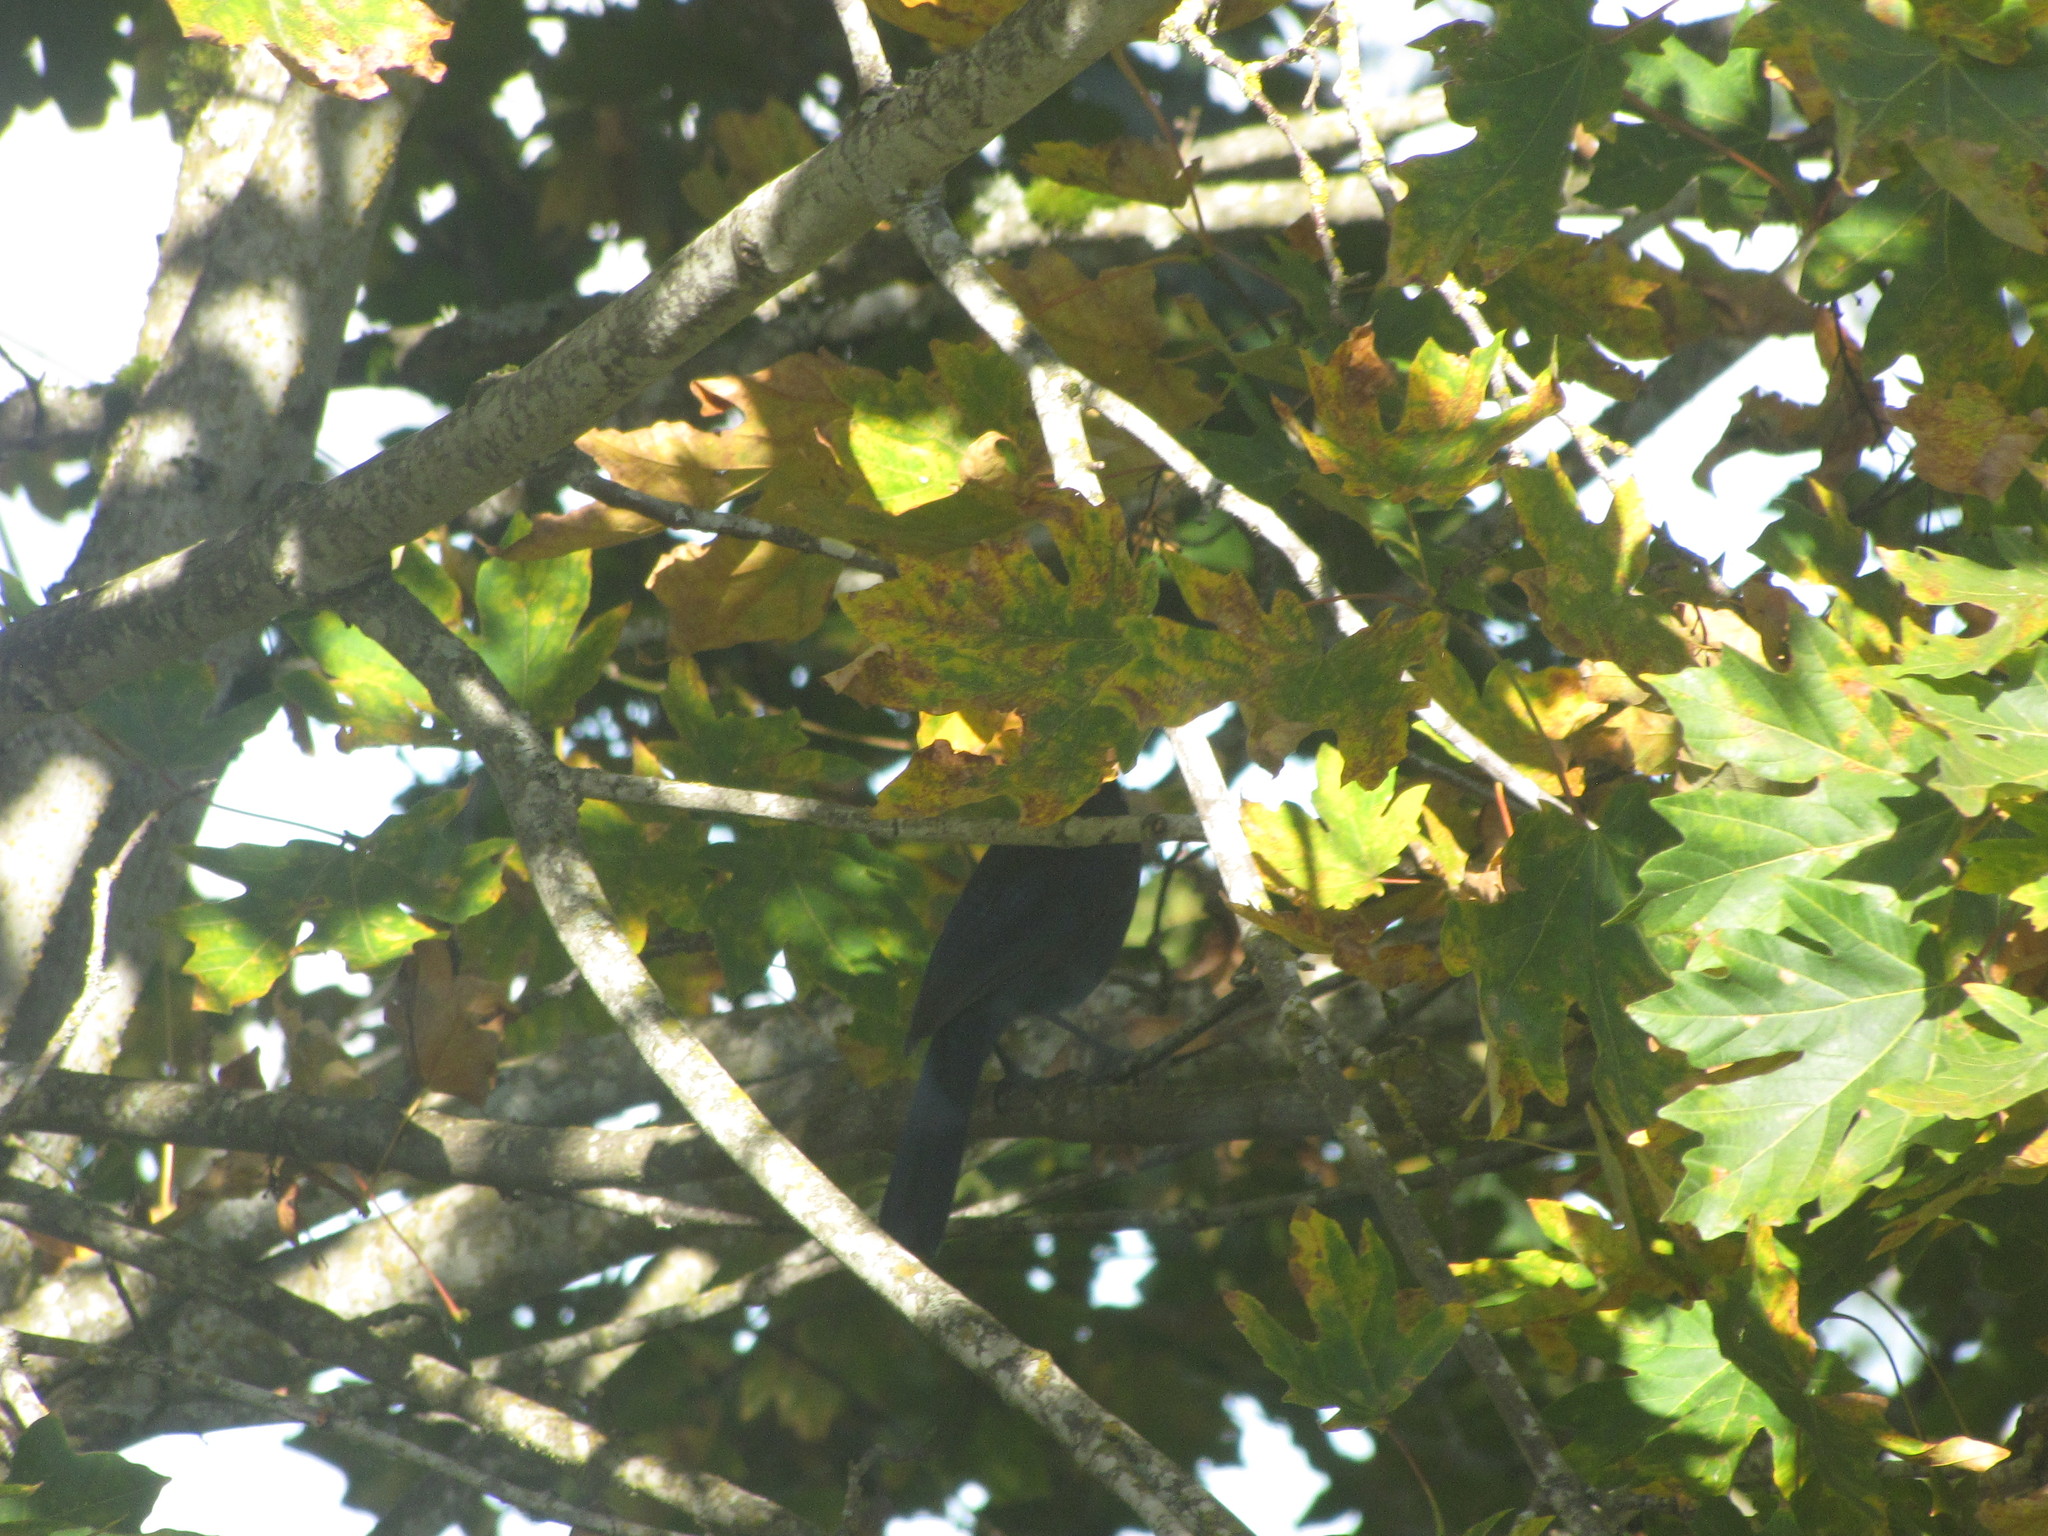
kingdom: Animalia
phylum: Chordata
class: Aves
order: Passeriformes
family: Corvidae
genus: Cyanocitta
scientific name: Cyanocitta stelleri
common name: Steller's jay
